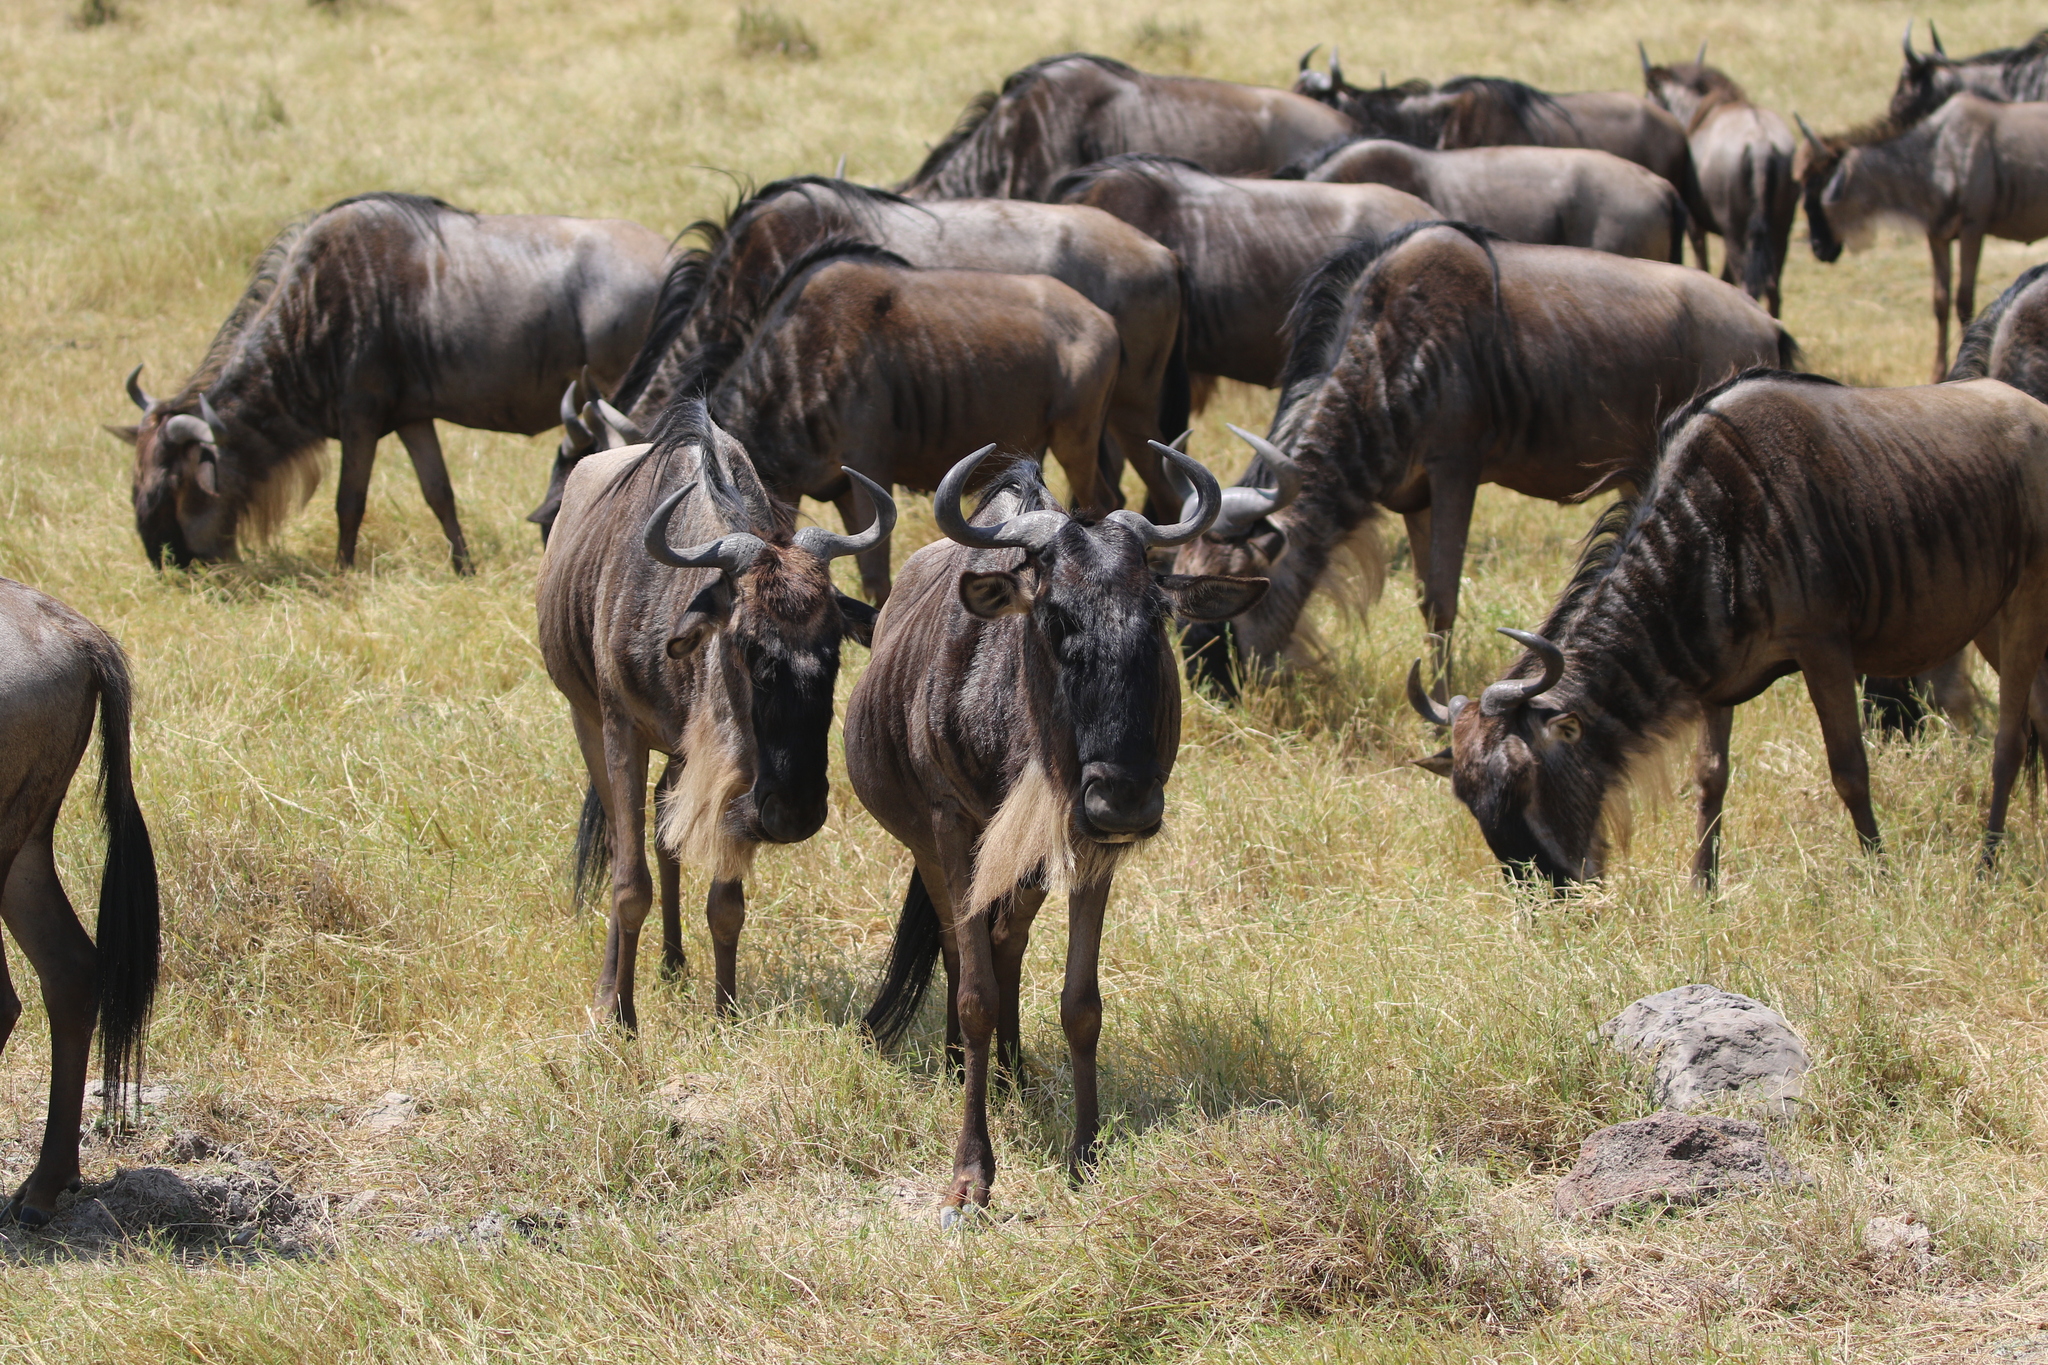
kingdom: Animalia
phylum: Chordata
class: Mammalia
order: Artiodactyla
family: Bovidae
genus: Connochaetes
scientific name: Connochaetes taurinus
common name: Blue wildebeest
